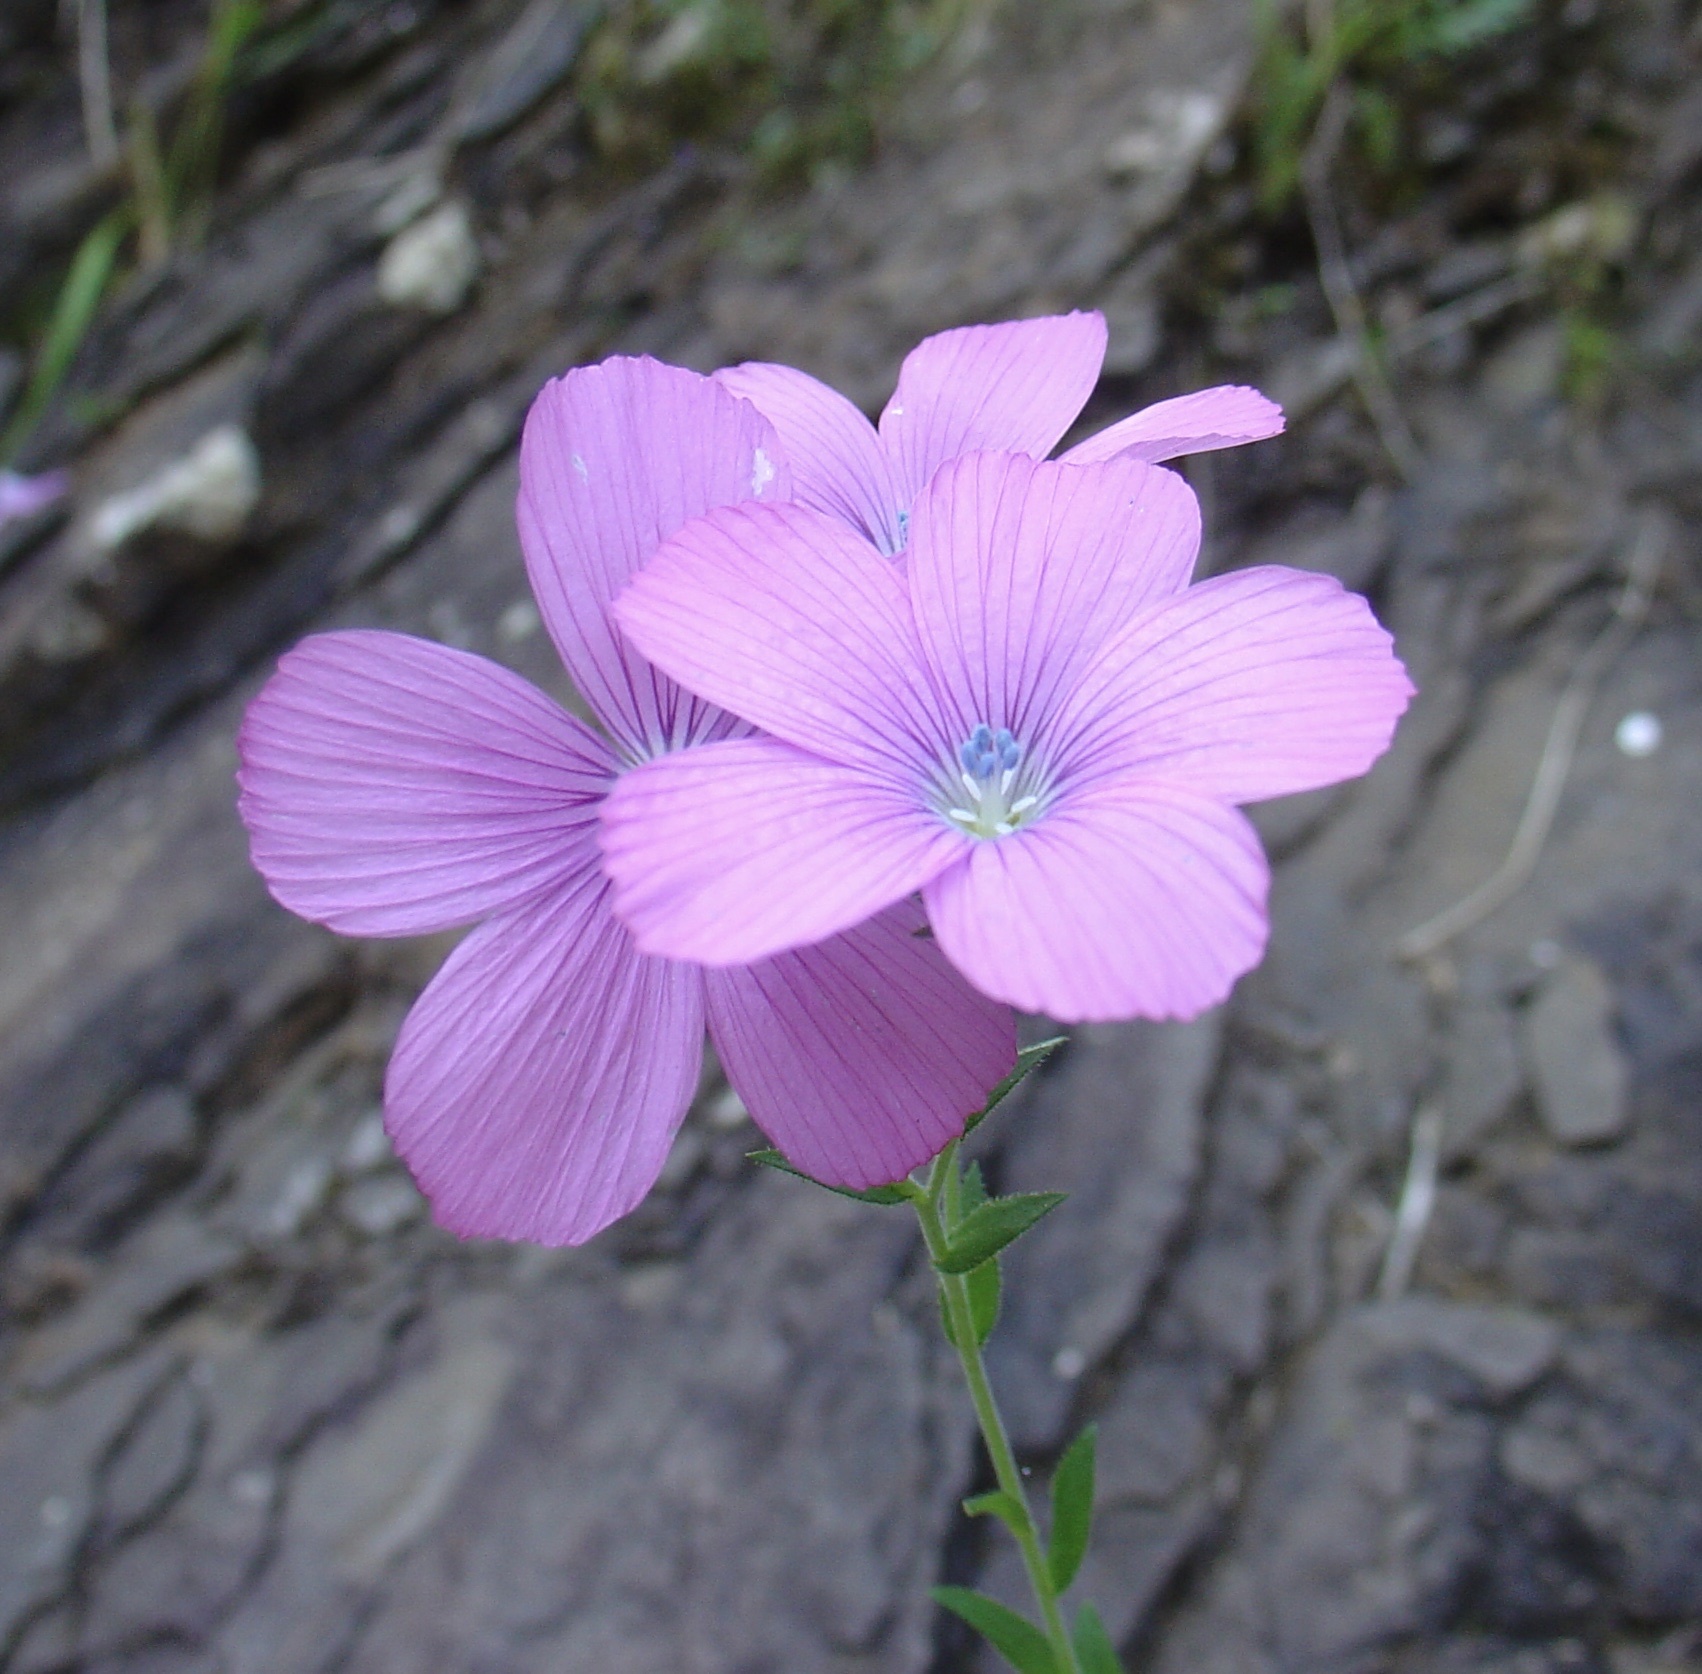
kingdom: Plantae
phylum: Tracheophyta
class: Magnoliopsida
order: Malpighiales
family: Linaceae
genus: Linum
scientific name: Linum viscosum
